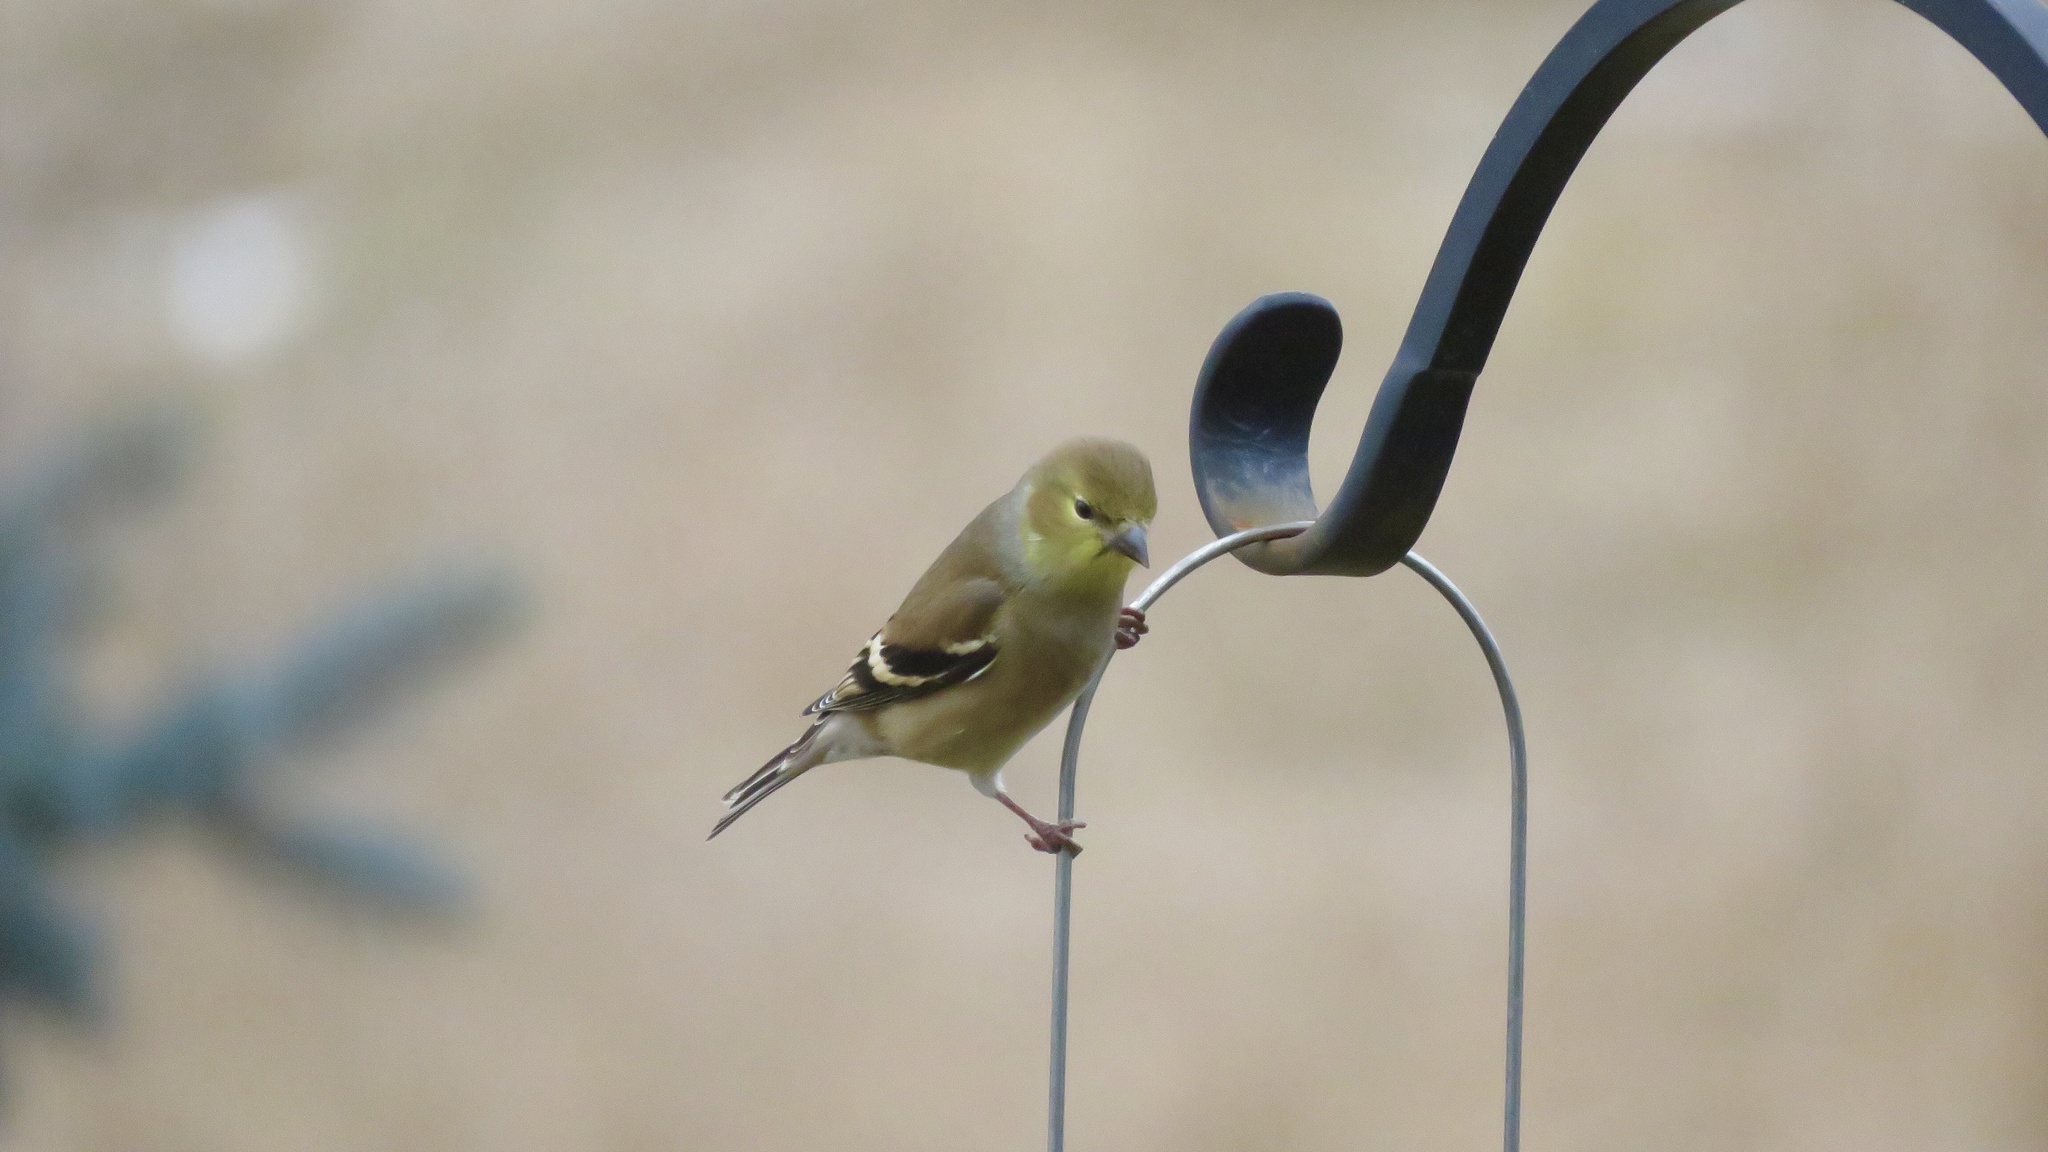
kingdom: Animalia
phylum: Chordata
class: Aves
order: Passeriformes
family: Fringillidae
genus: Spinus
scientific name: Spinus tristis
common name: American goldfinch
